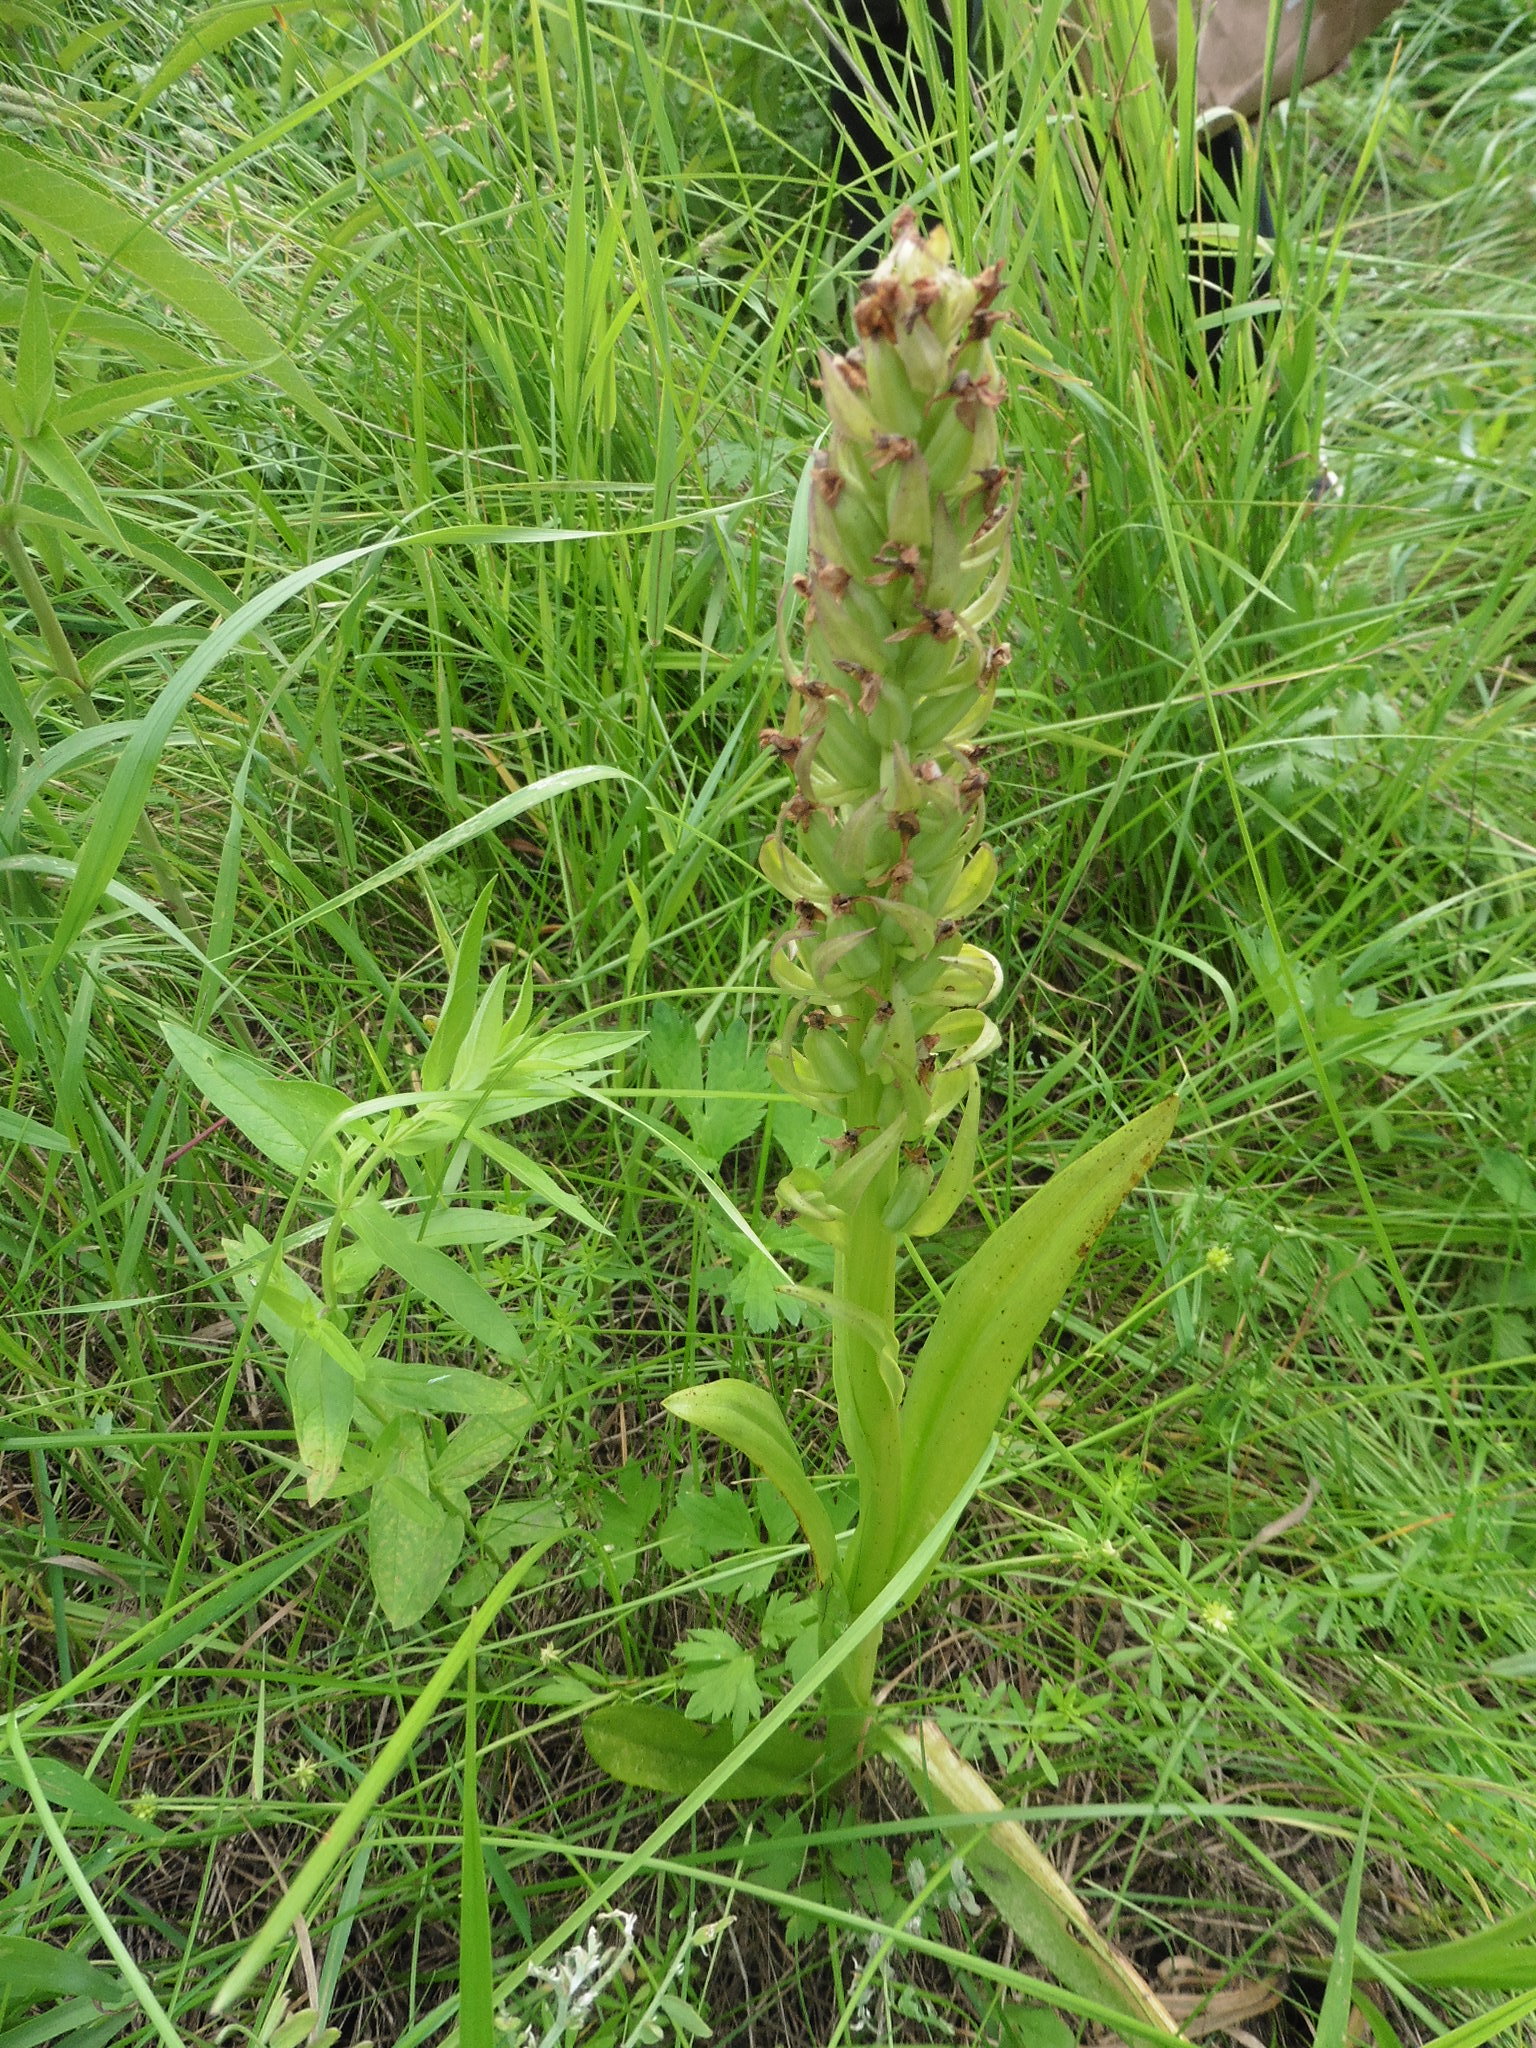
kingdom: Plantae
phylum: Tracheophyta
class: Liliopsida
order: Asparagales
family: Orchidaceae
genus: Dactylorhiza
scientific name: Dactylorhiza incarnata
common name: Early marsh-orchid
